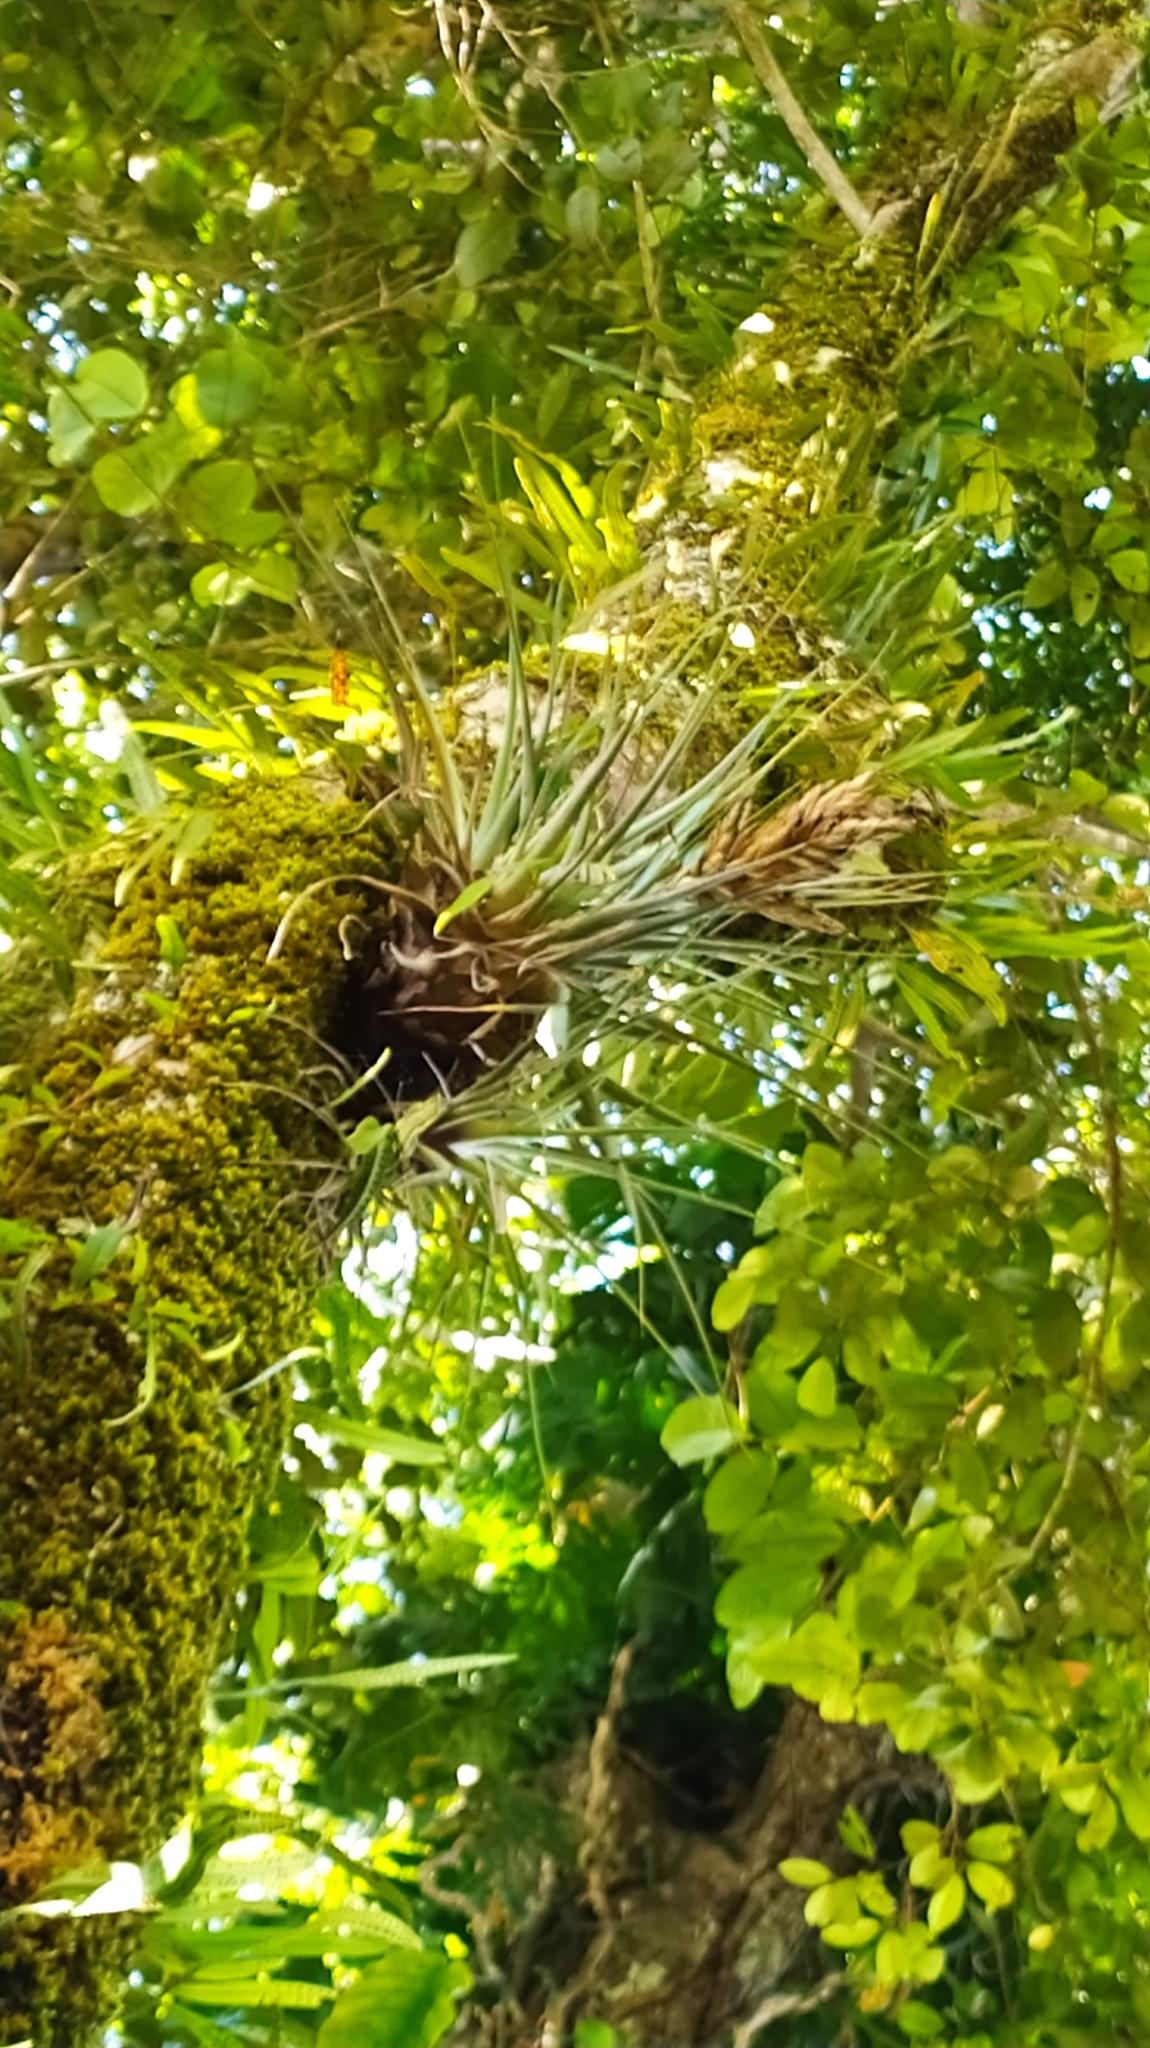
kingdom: Plantae
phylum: Tracheophyta
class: Liliopsida
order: Poales
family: Bromeliaceae
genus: Tillandsia
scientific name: Tillandsia fasciculata
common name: Giant airplant
